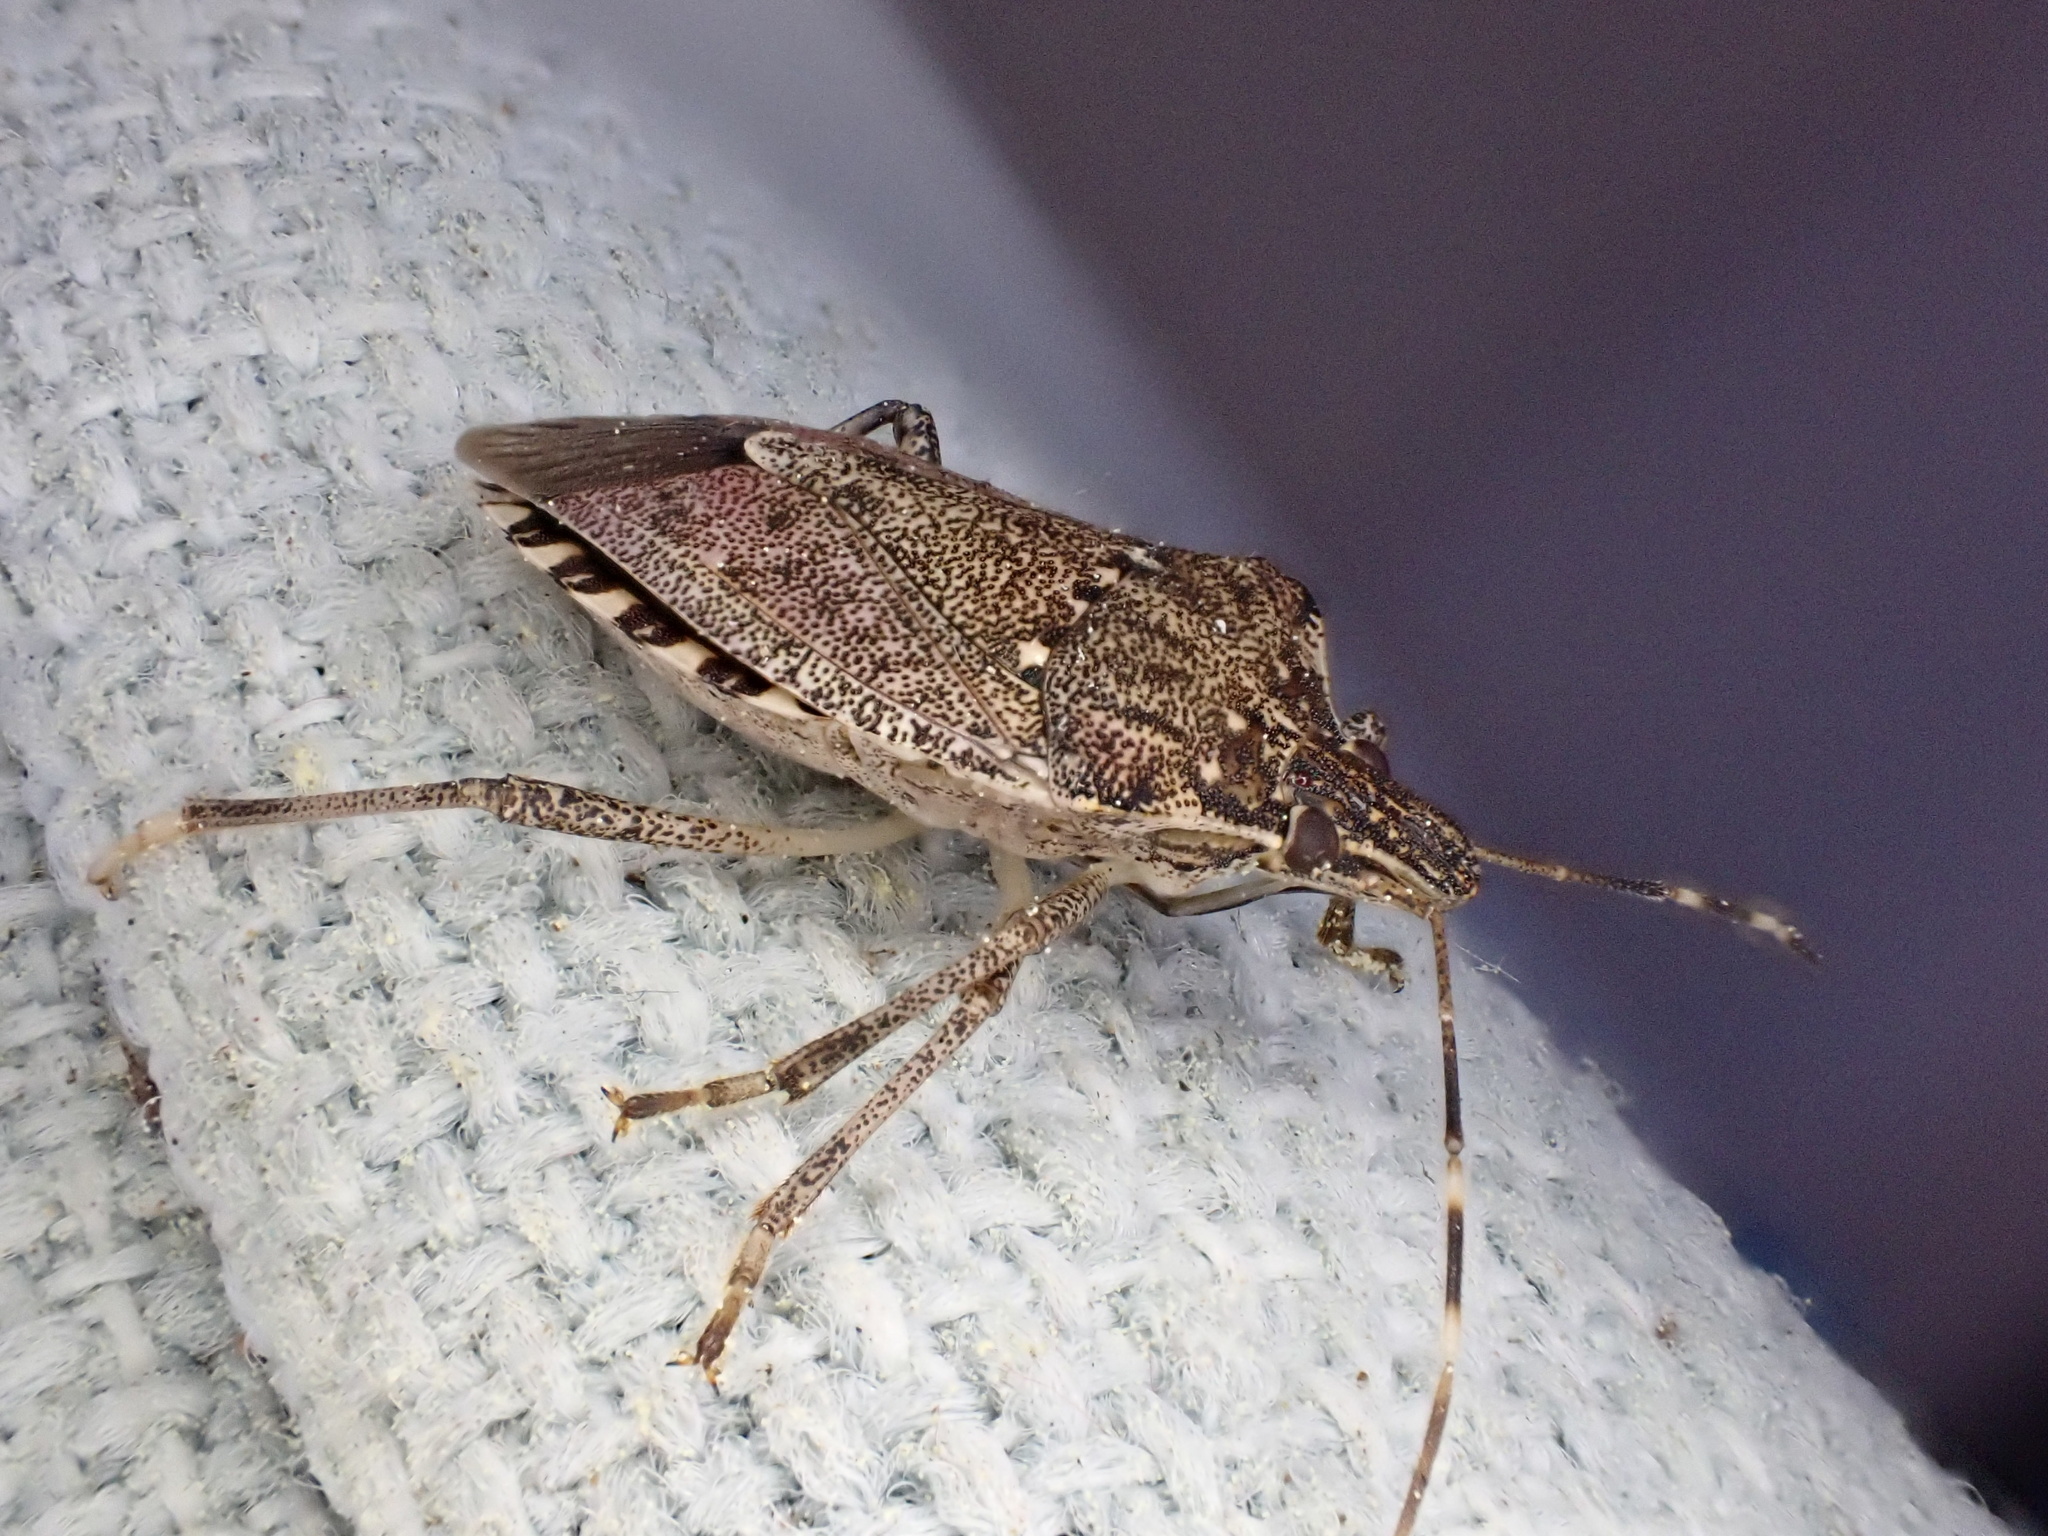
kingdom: Animalia
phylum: Arthropoda
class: Insecta
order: Hemiptera
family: Pentatomidae
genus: Halyomorpha
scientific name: Halyomorpha halys
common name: Brown marmorated stink bug
